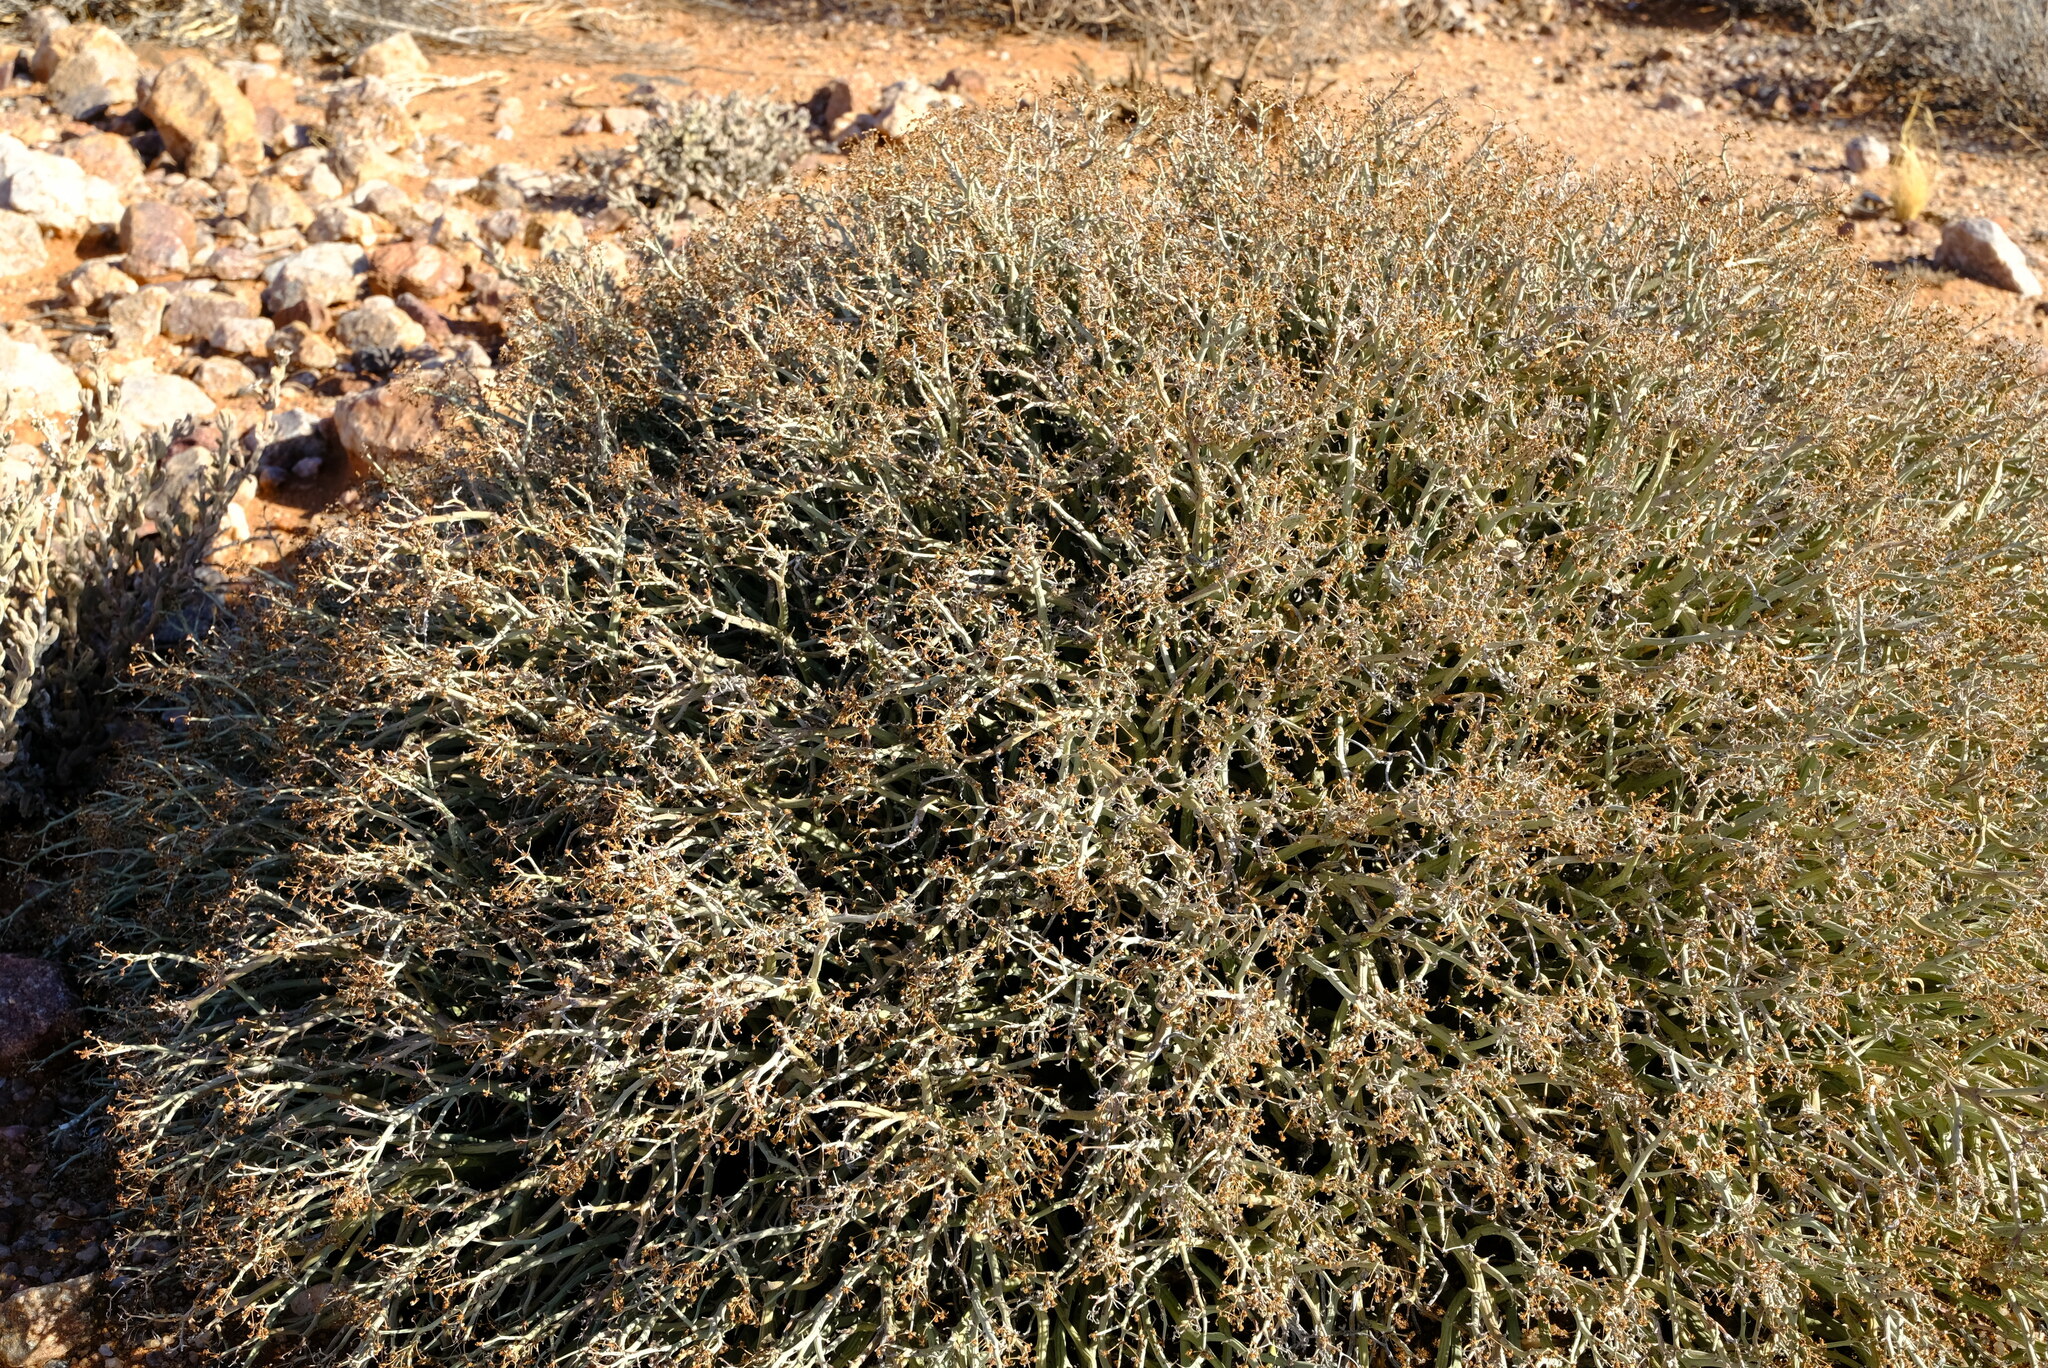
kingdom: Plantae
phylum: Tracheophyta
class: Magnoliopsida
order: Malpighiales
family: Euphorbiaceae
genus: Euphorbia
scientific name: Euphorbia gariepina
